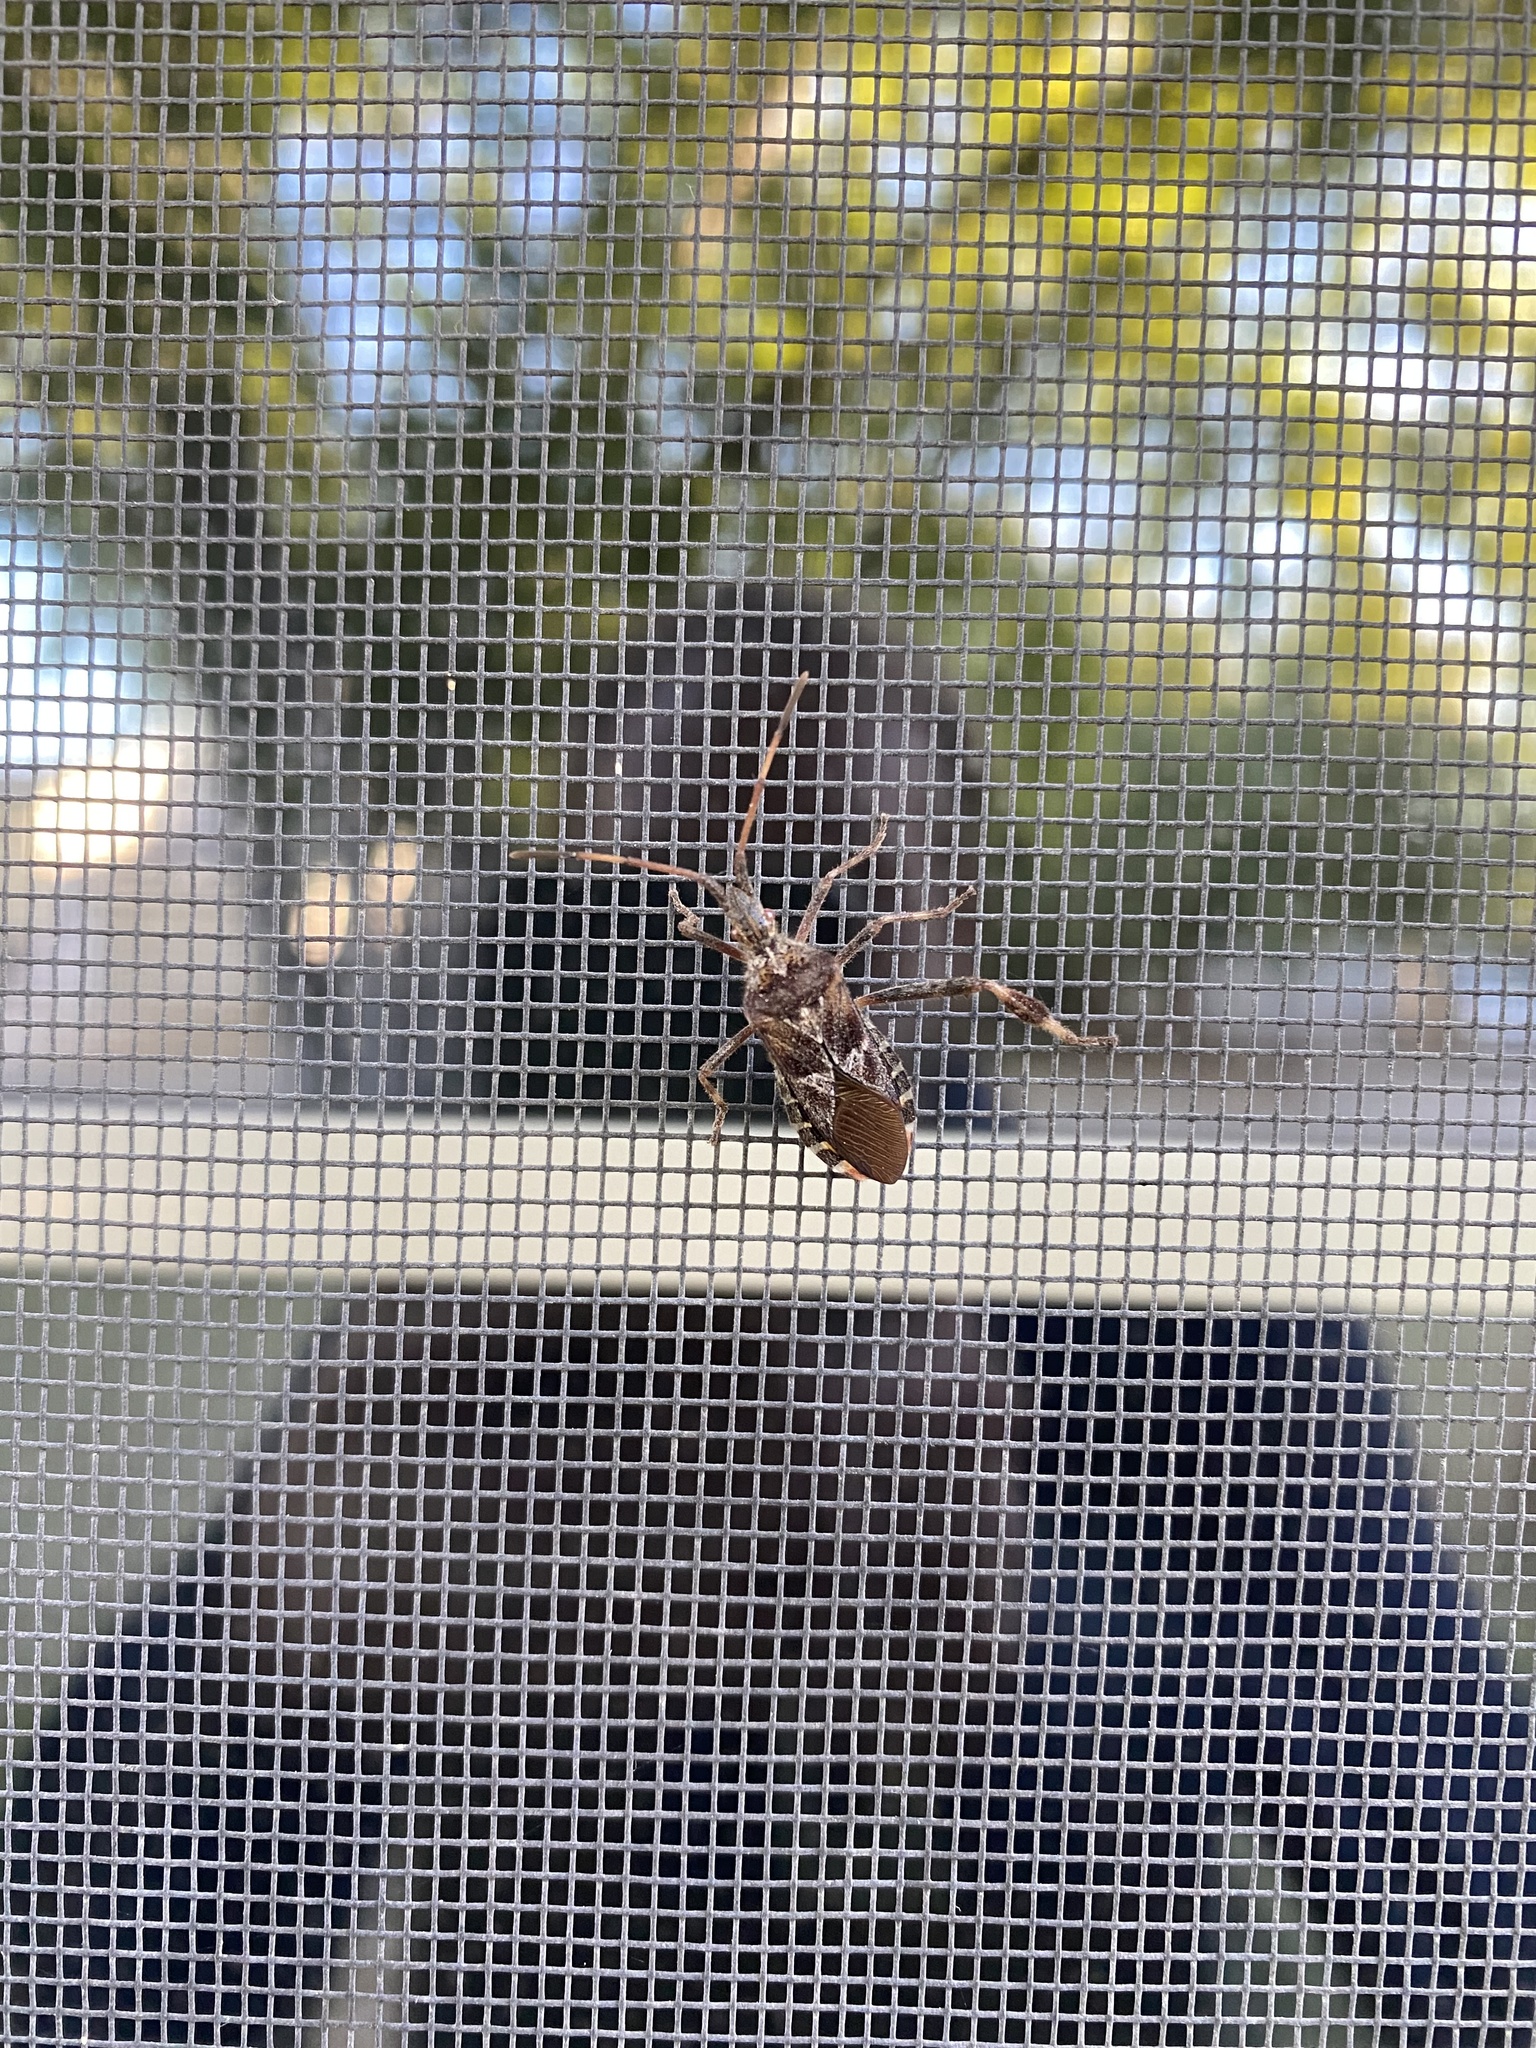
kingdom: Animalia
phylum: Arthropoda
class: Insecta
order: Hemiptera
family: Coreidae
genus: Leptoglossus
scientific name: Leptoglossus occidentalis
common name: Western conifer-seed bug
